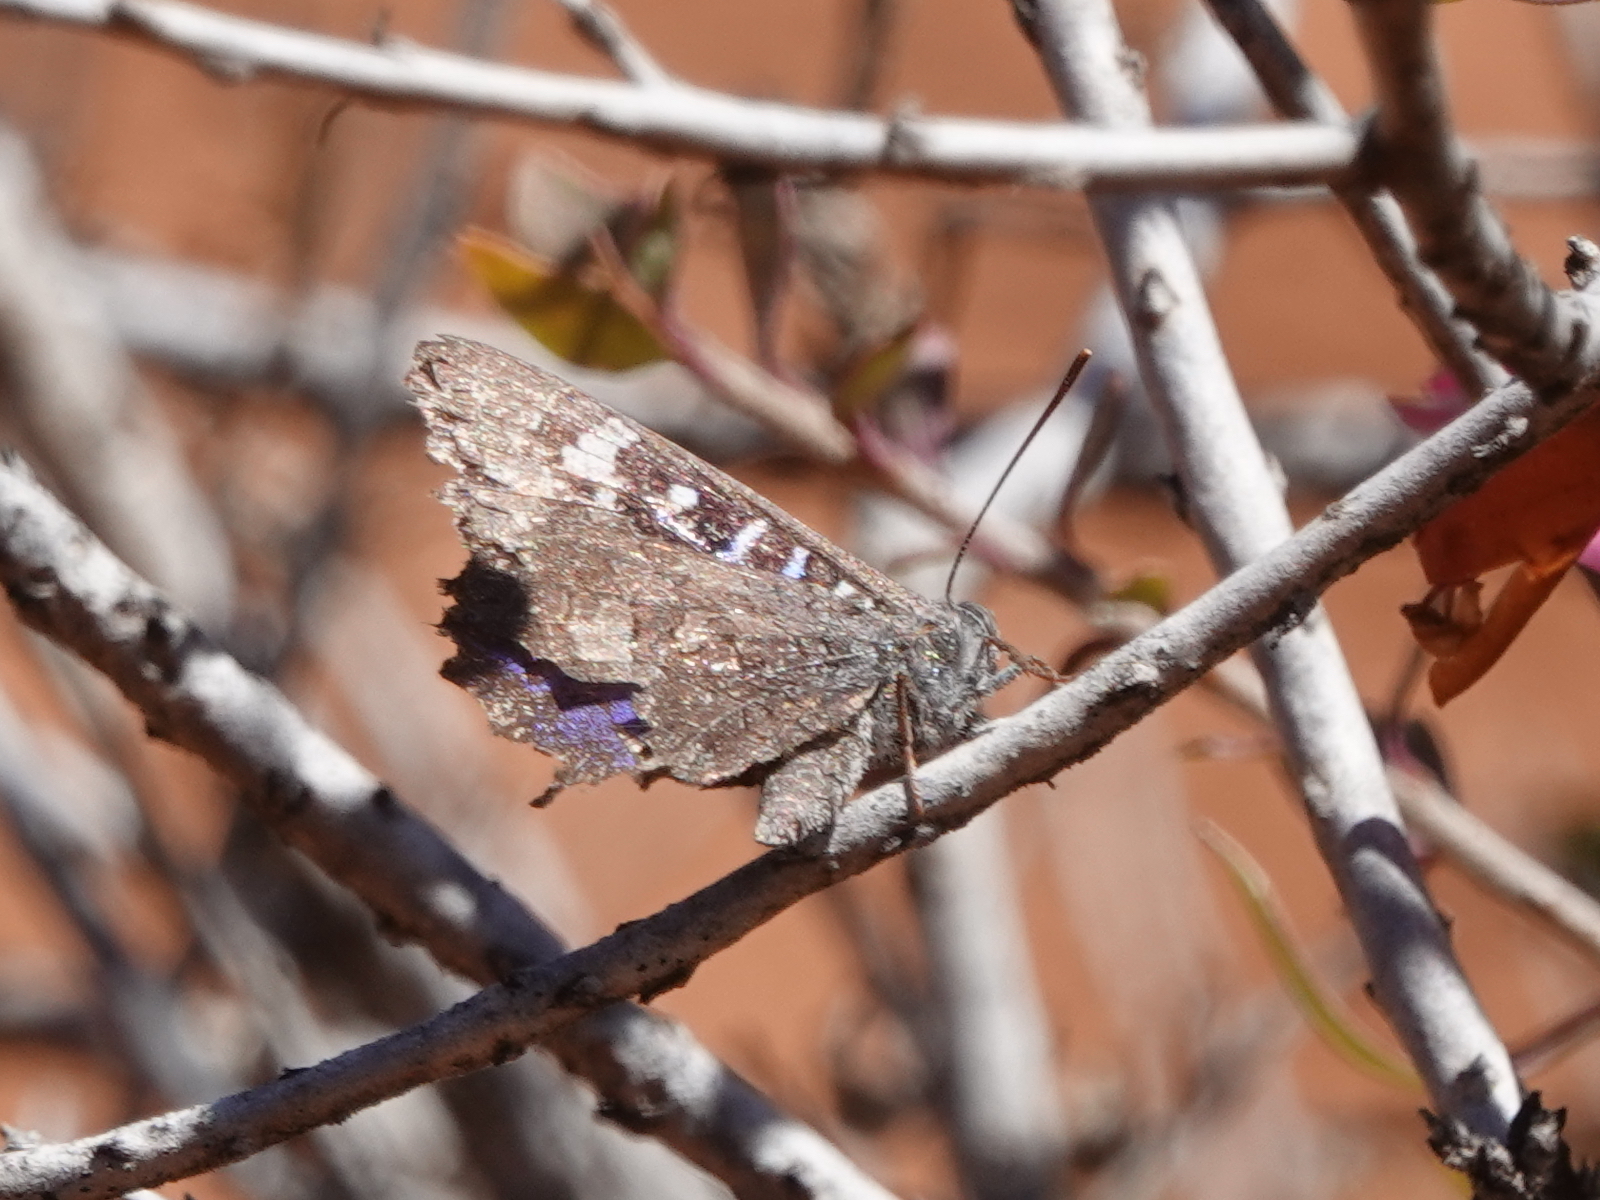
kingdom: Animalia
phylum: Arthropoda
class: Insecta
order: Lepidoptera
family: Lycaenidae
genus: Ogyris
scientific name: Ogyris amaryllis
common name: Satin azure
